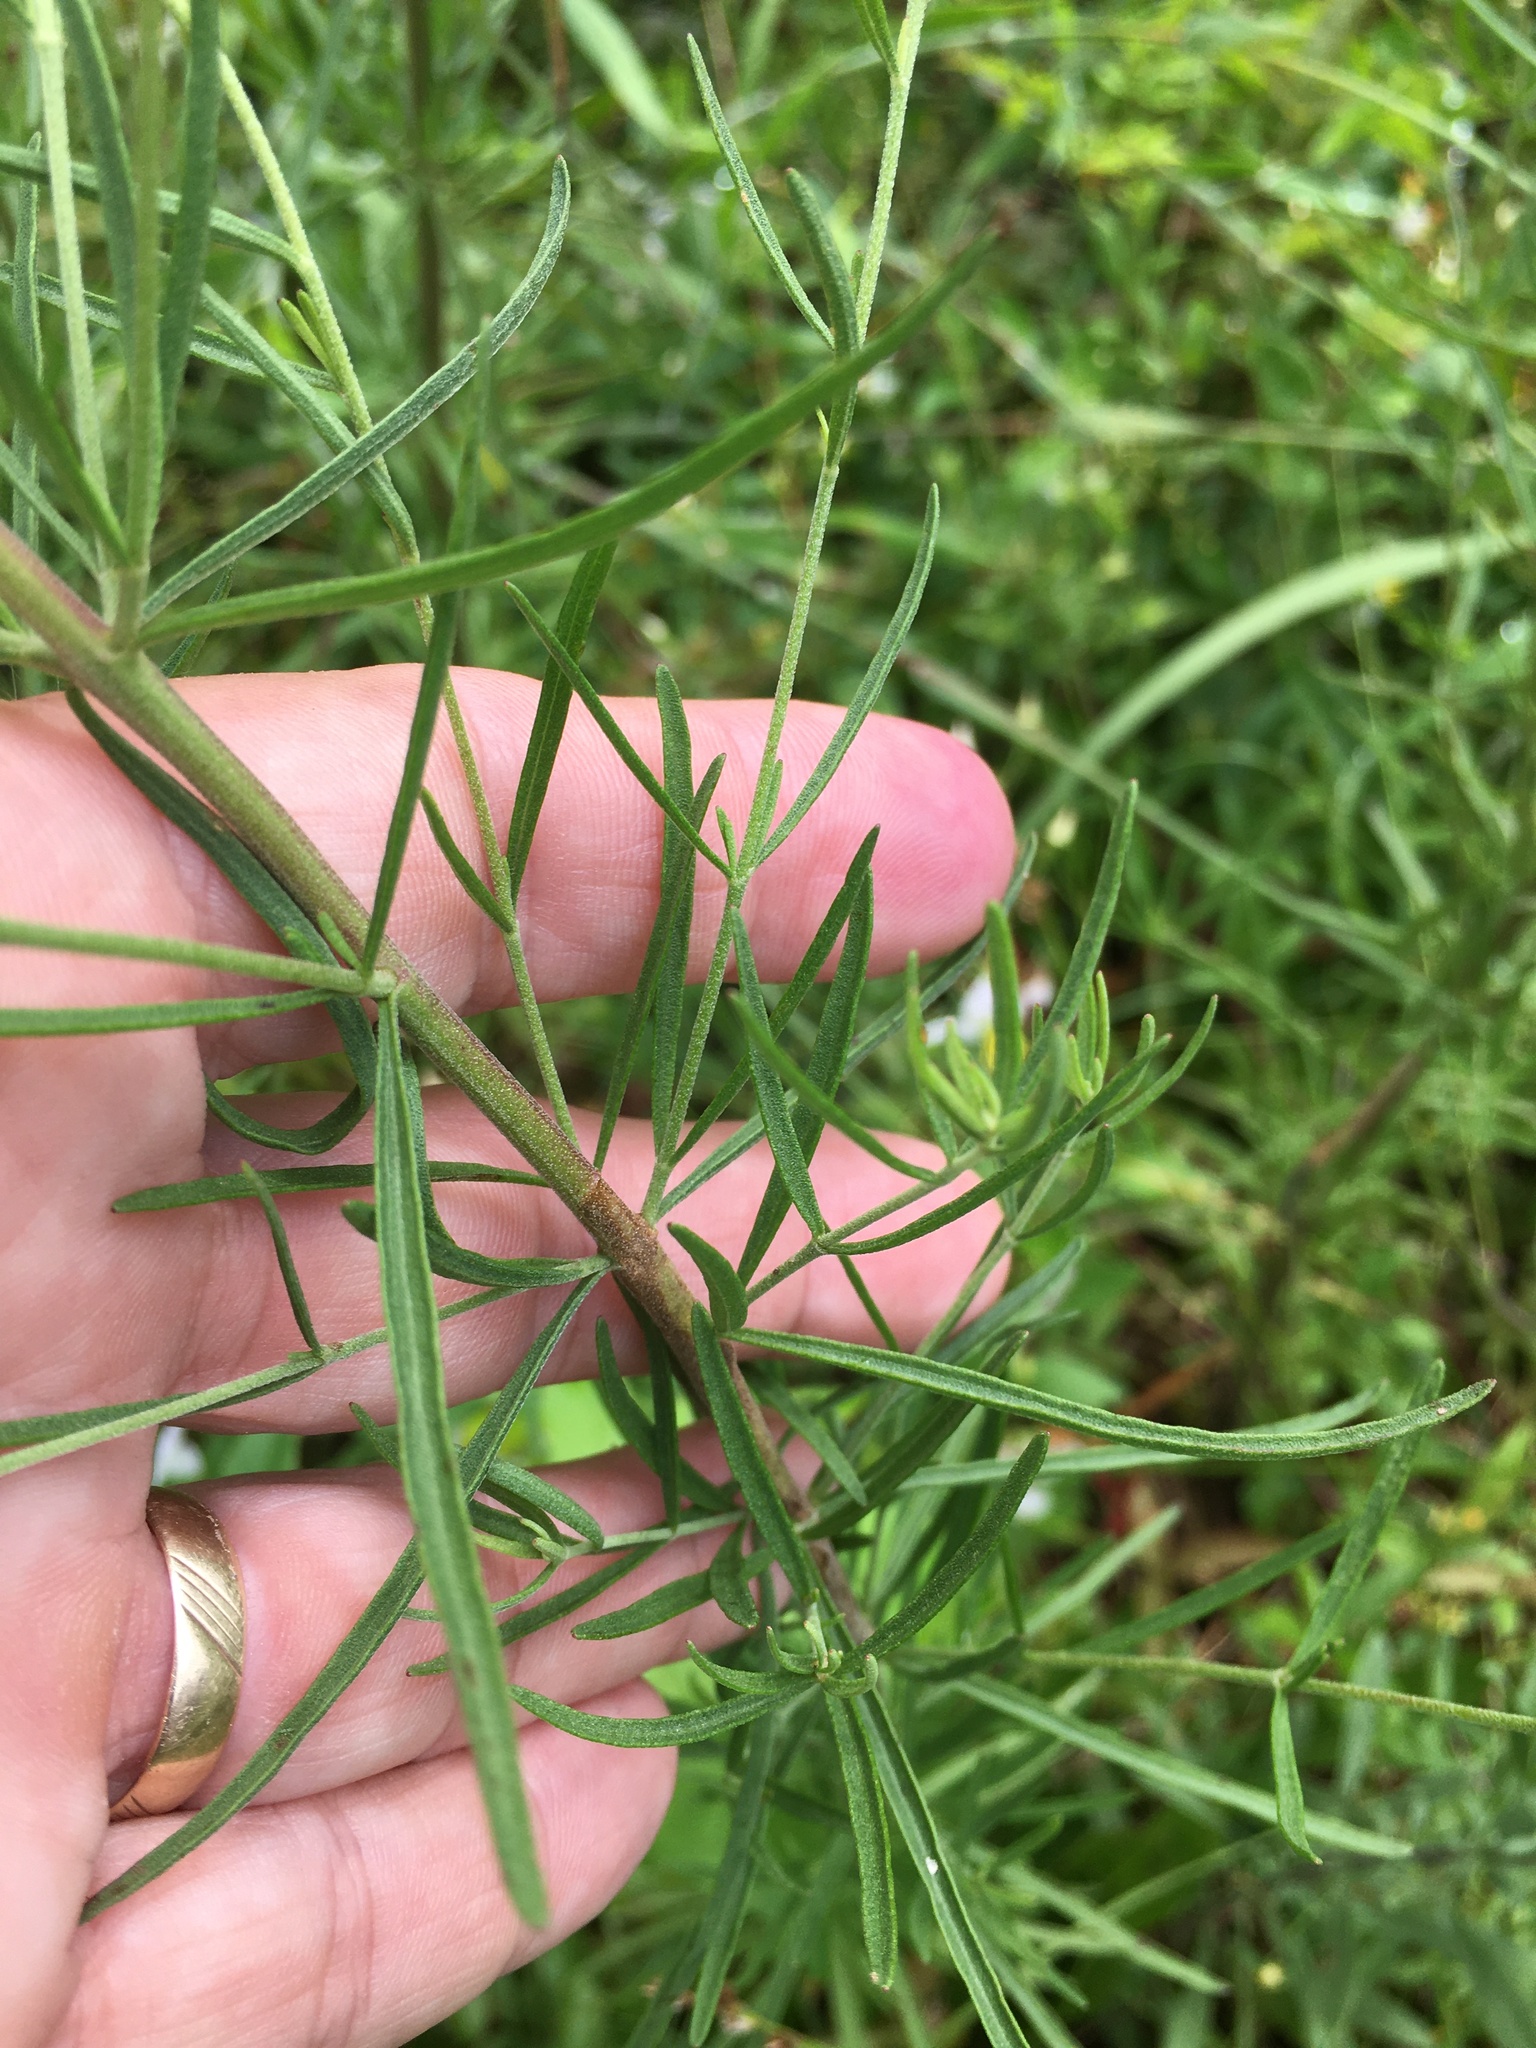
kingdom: Plantae
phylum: Tracheophyta
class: Magnoliopsida
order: Asterales
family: Asteraceae
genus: Eupatorium
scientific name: Eupatorium hyssopifolium
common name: Hyssop-leaf thoroughwort
